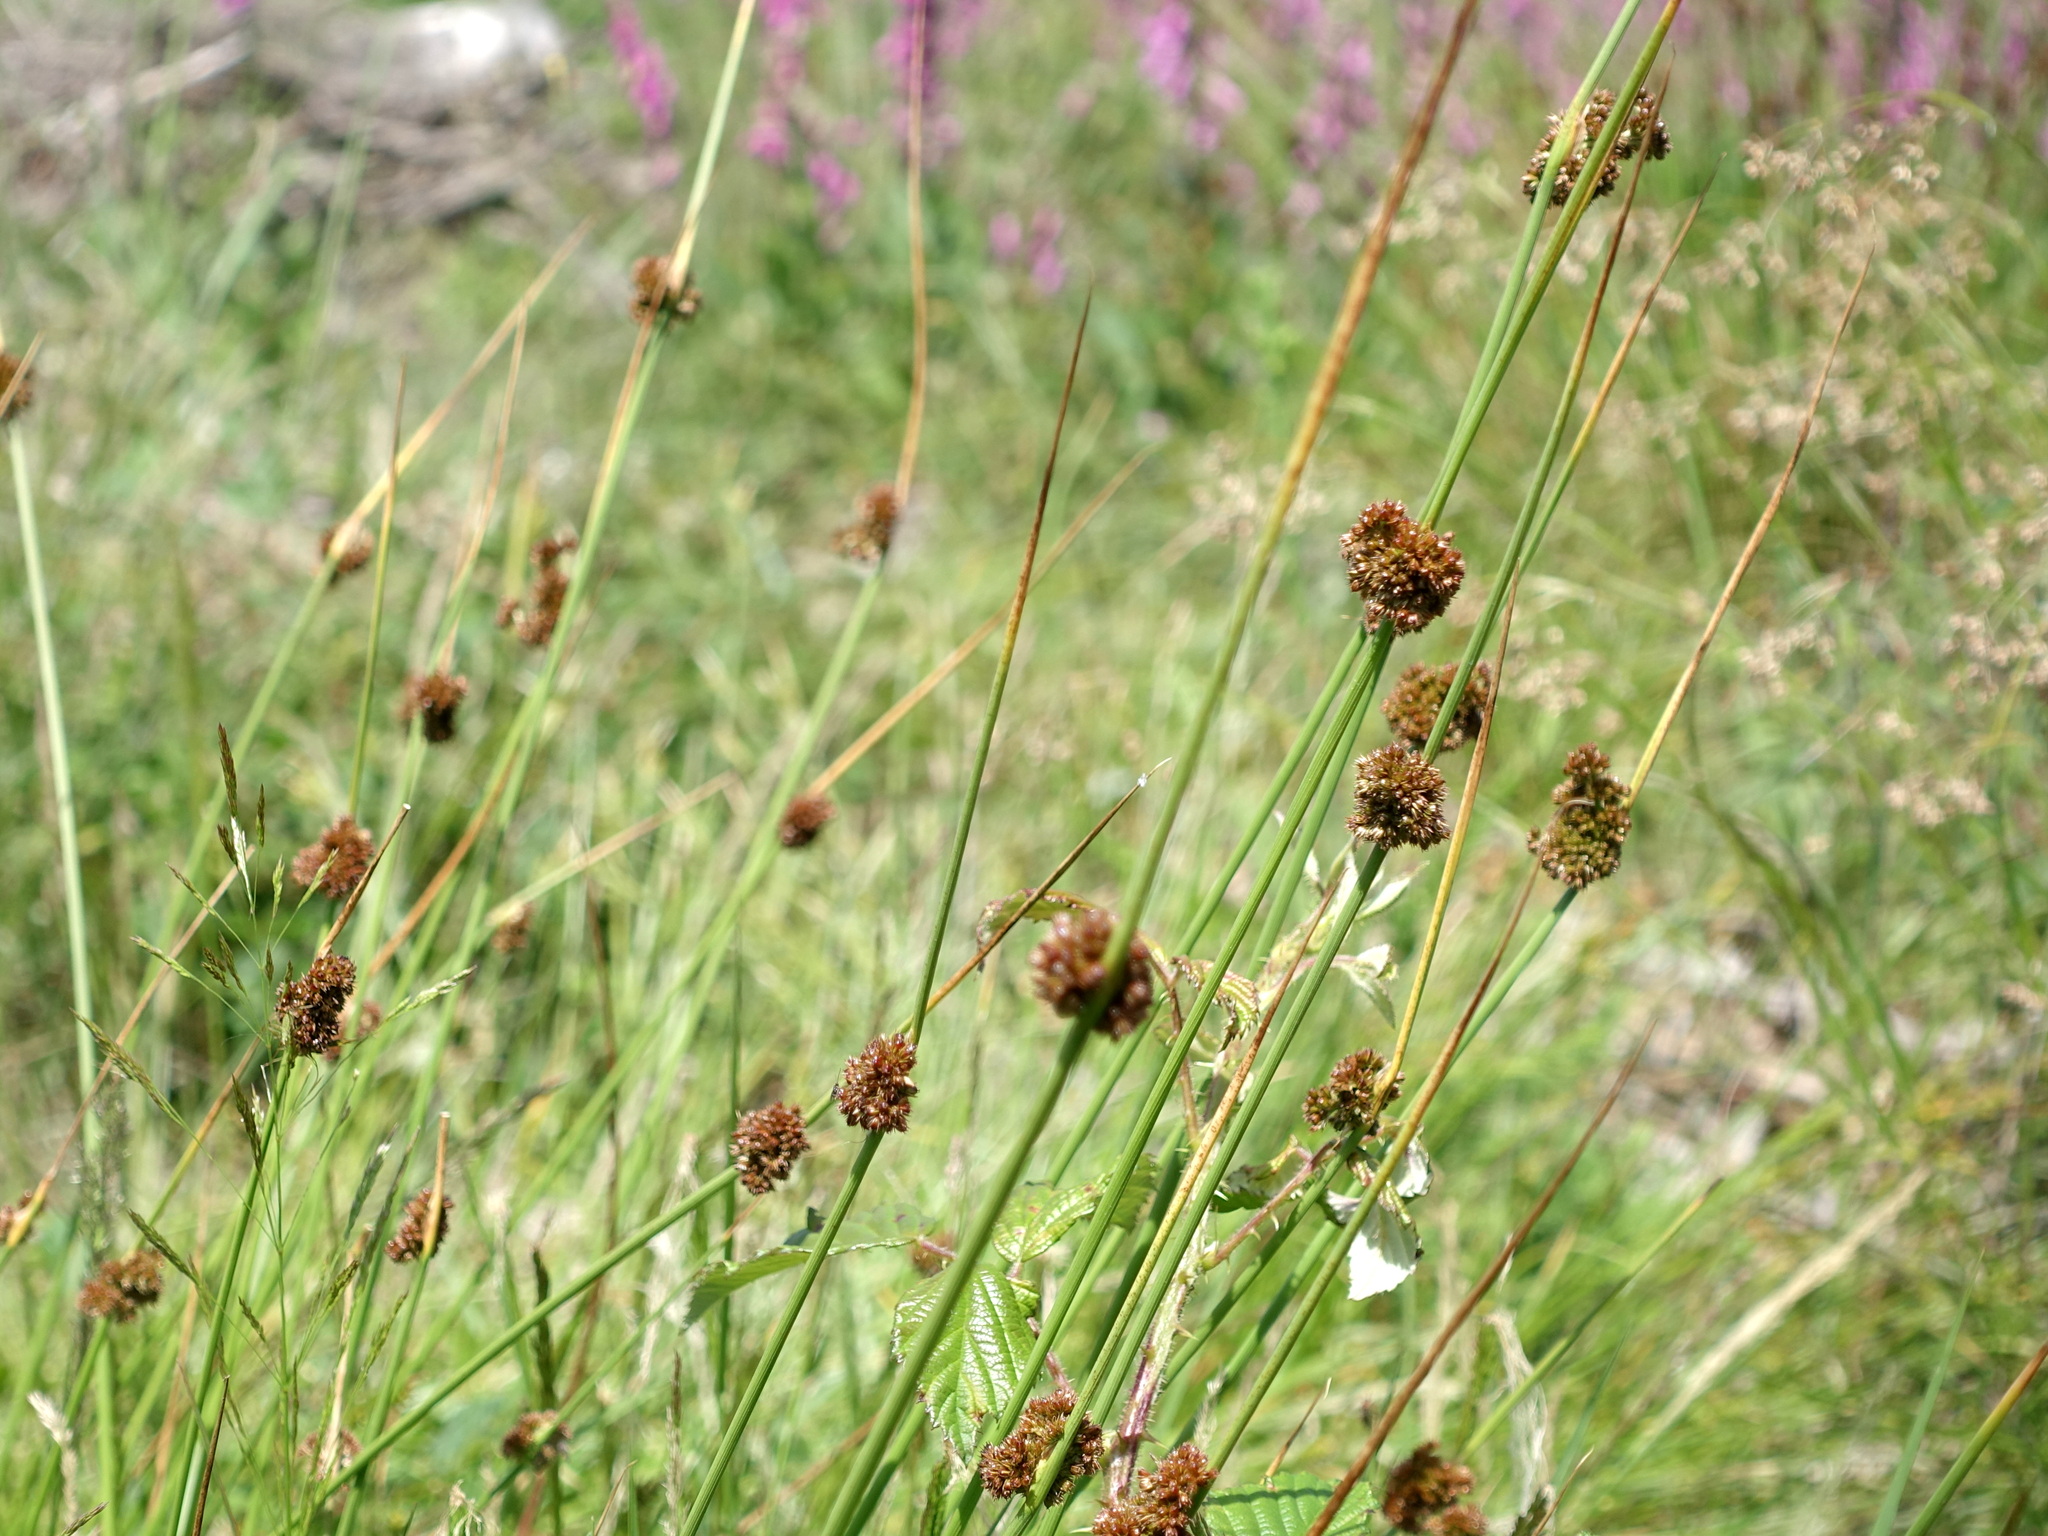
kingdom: Plantae
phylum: Tracheophyta
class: Liliopsida
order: Poales
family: Juncaceae
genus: Juncus
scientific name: Juncus conglomeratus
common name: Compact rush
